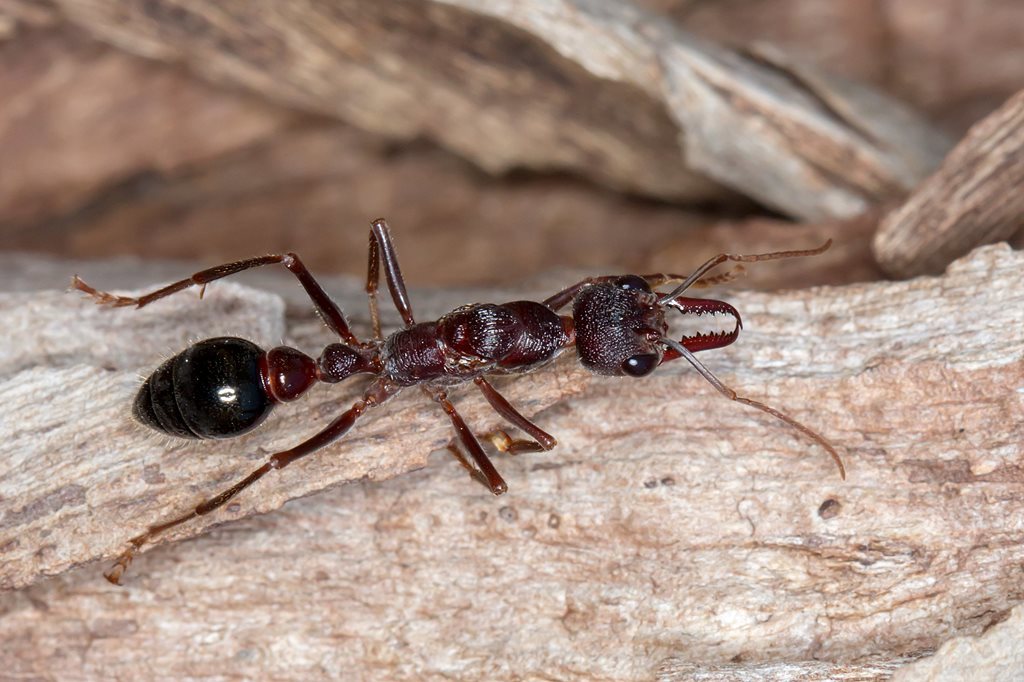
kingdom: Animalia
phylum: Arthropoda
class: Insecta
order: Hymenoptera
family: Formicidae
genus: Myrmecia
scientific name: Myrmecia forficata
